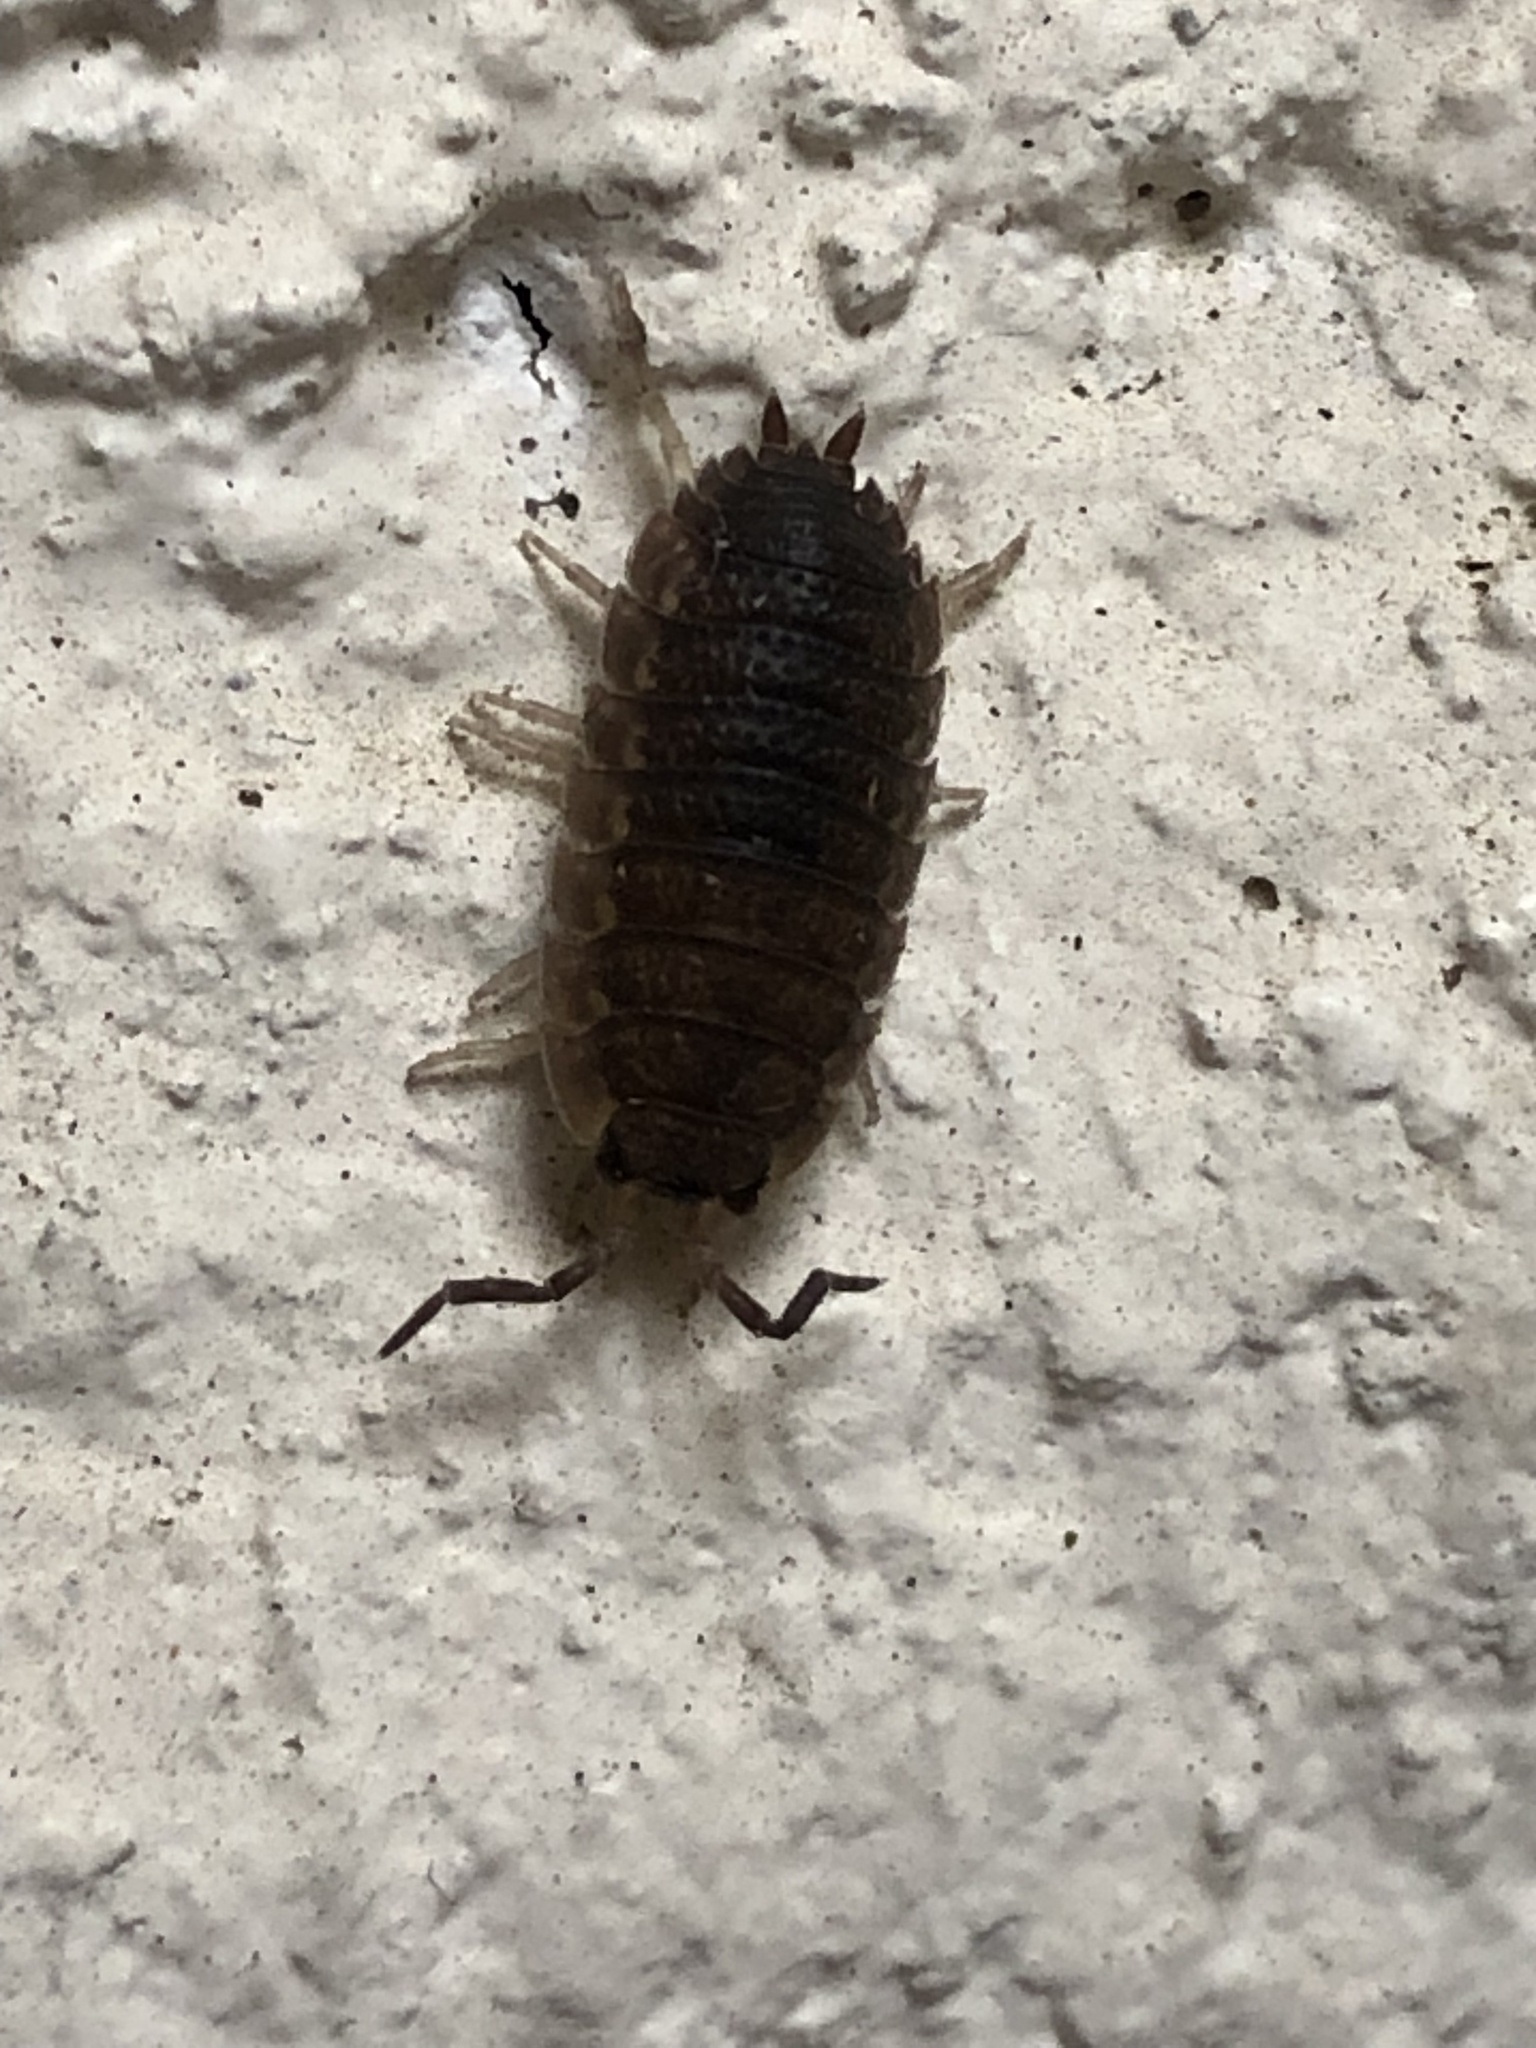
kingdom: Animalia
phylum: Arthropoda
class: Malacostraca
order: Isopoda
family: Porcellionidae
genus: Porcellio
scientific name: Porcellio scaber
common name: Common rough woodlouse
